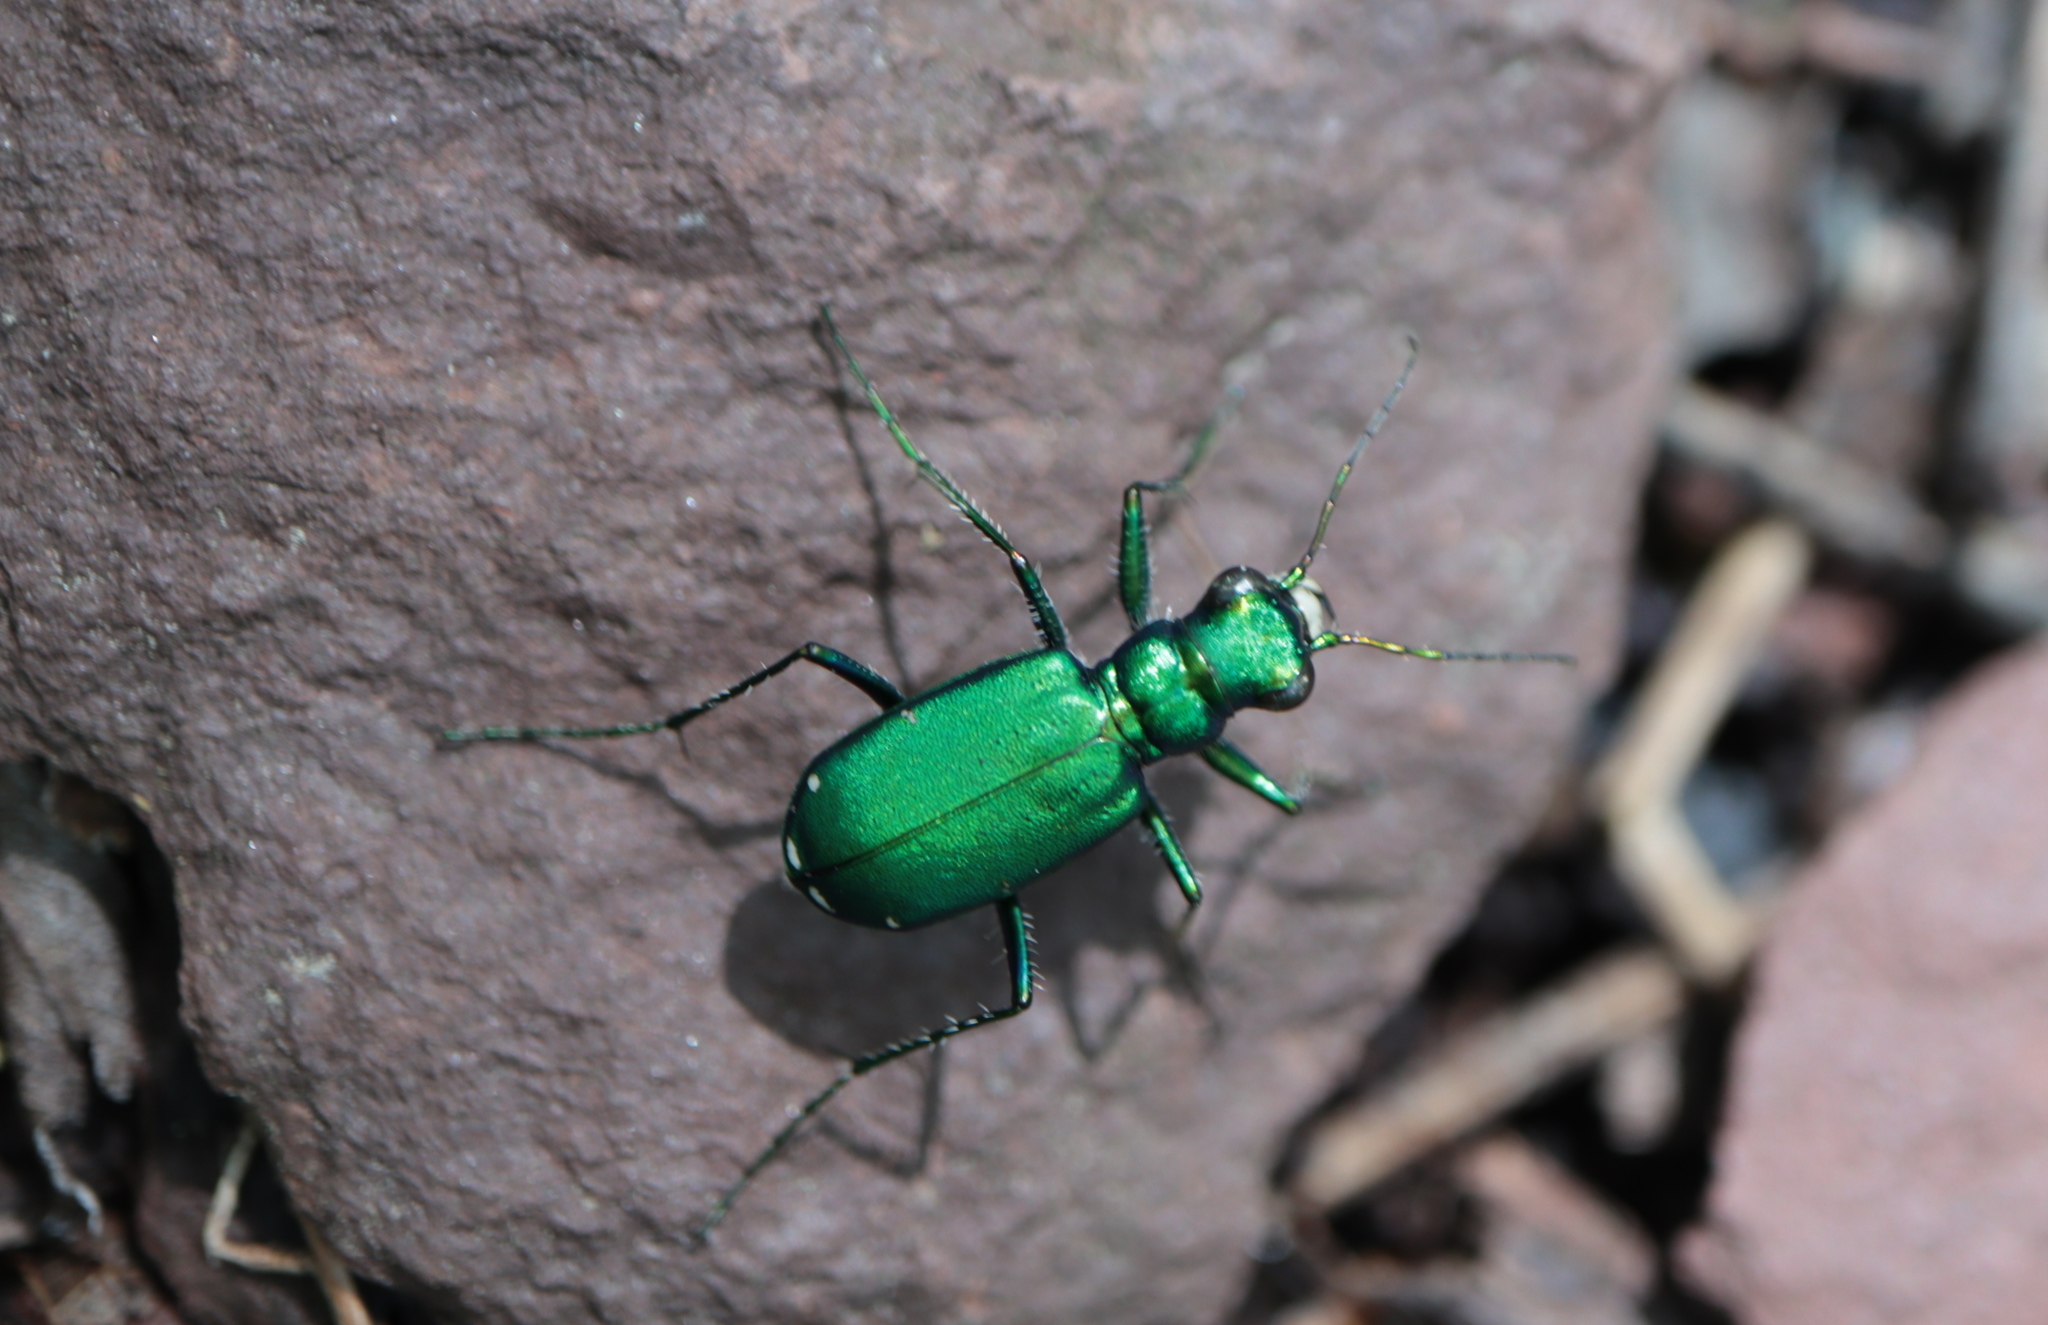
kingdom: Animalia
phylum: Arthropoda
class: Insecta
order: Coleoptera
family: Carabidae
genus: Cicindela
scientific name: Cicindela sexguttata
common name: Six-spotted tiger beetle
